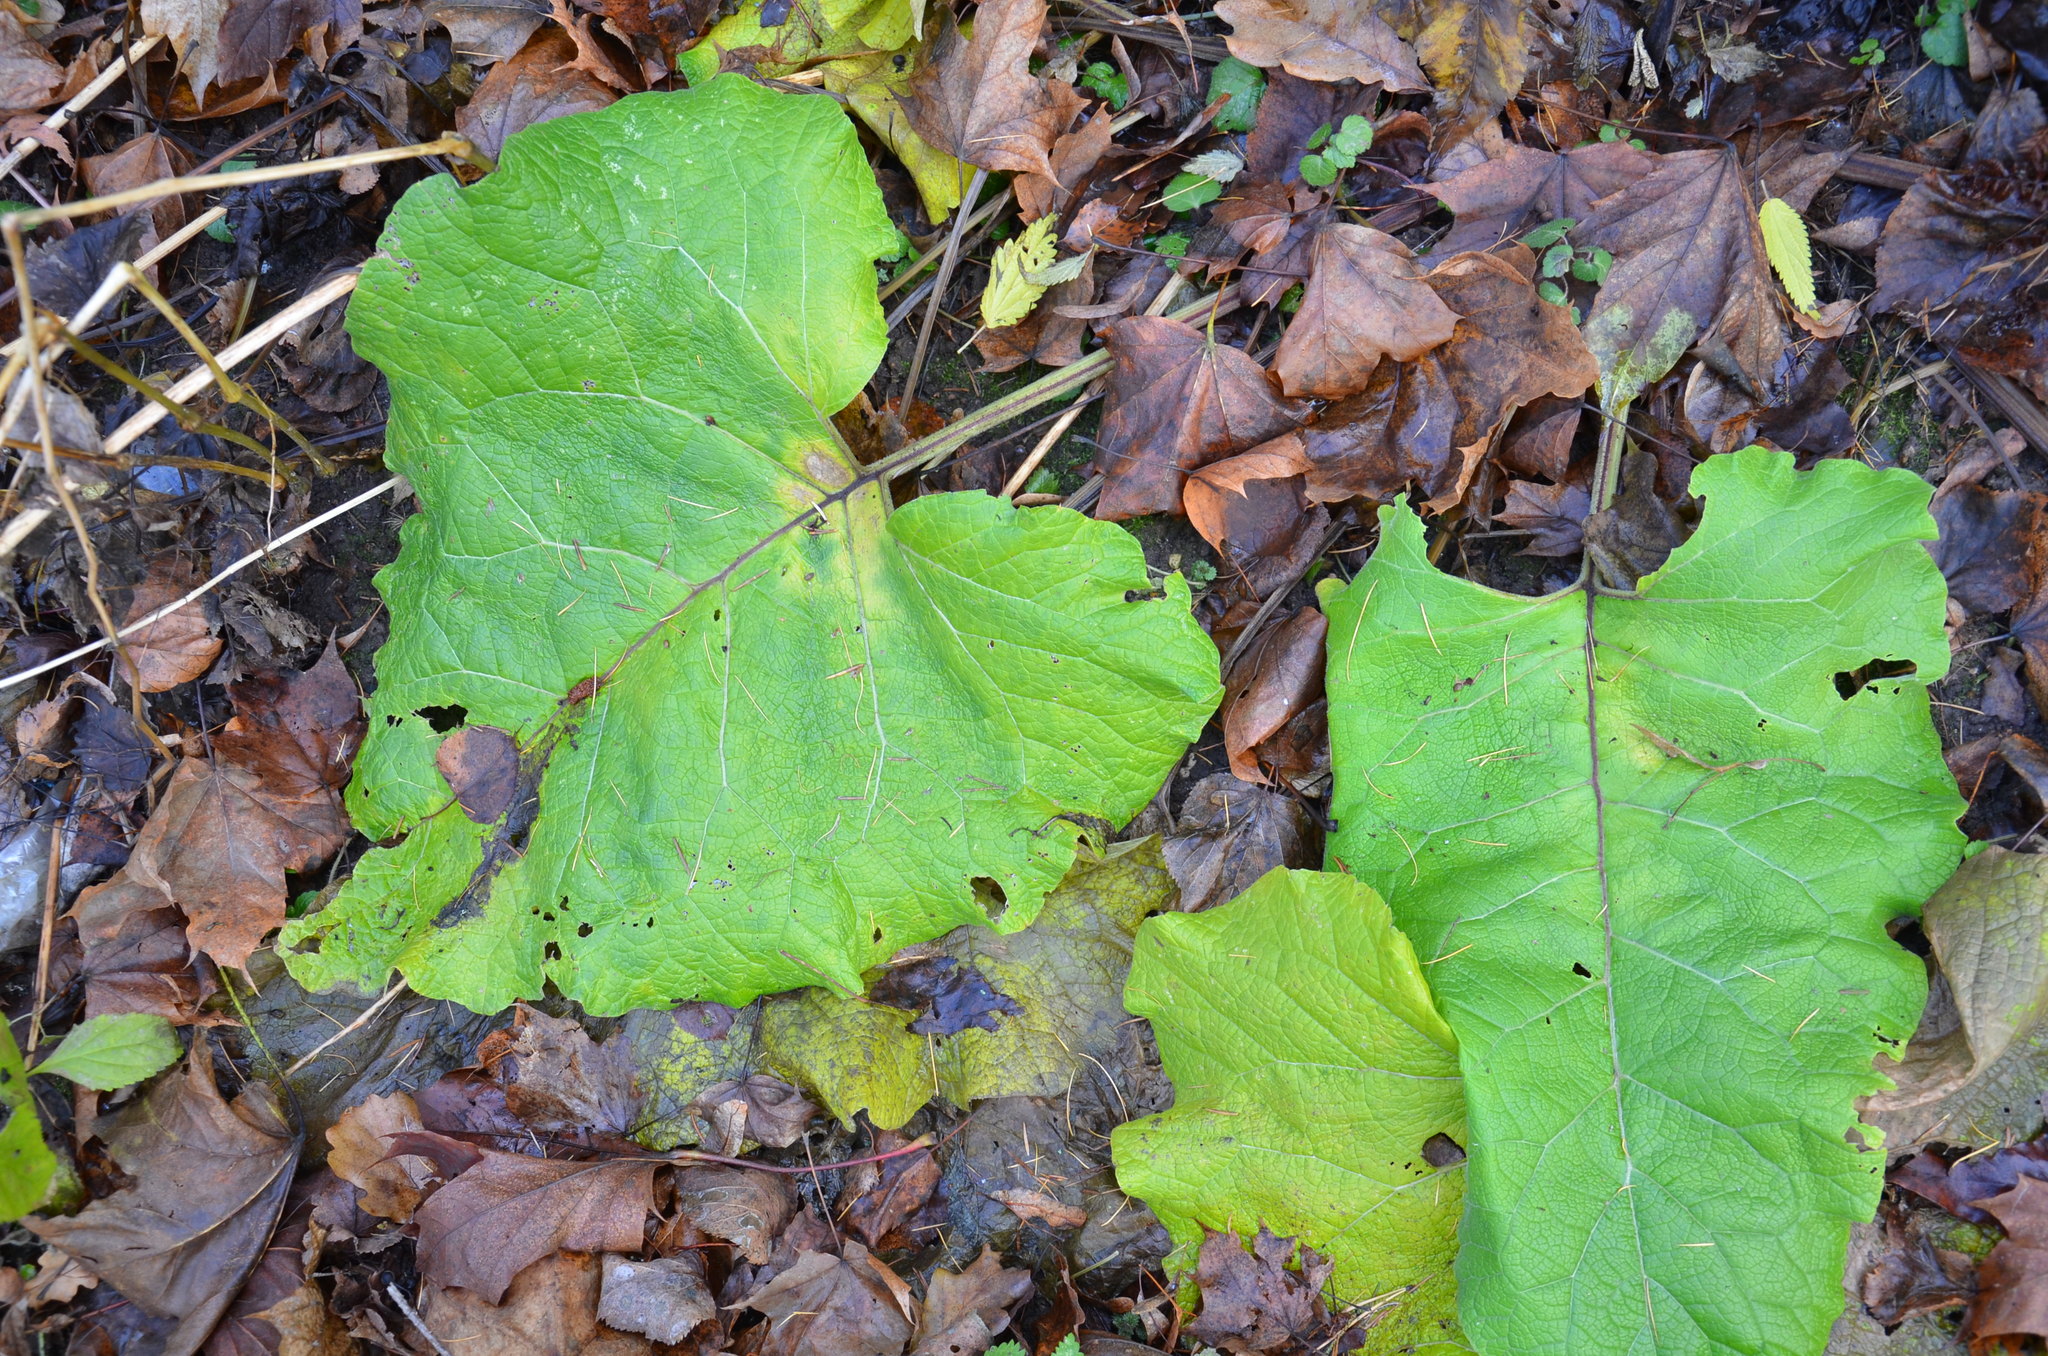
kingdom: Plantae
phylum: Tracheophyta
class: Magnoliopsida
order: Asterales
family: Asteraceae
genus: Arctium
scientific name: Arctium
